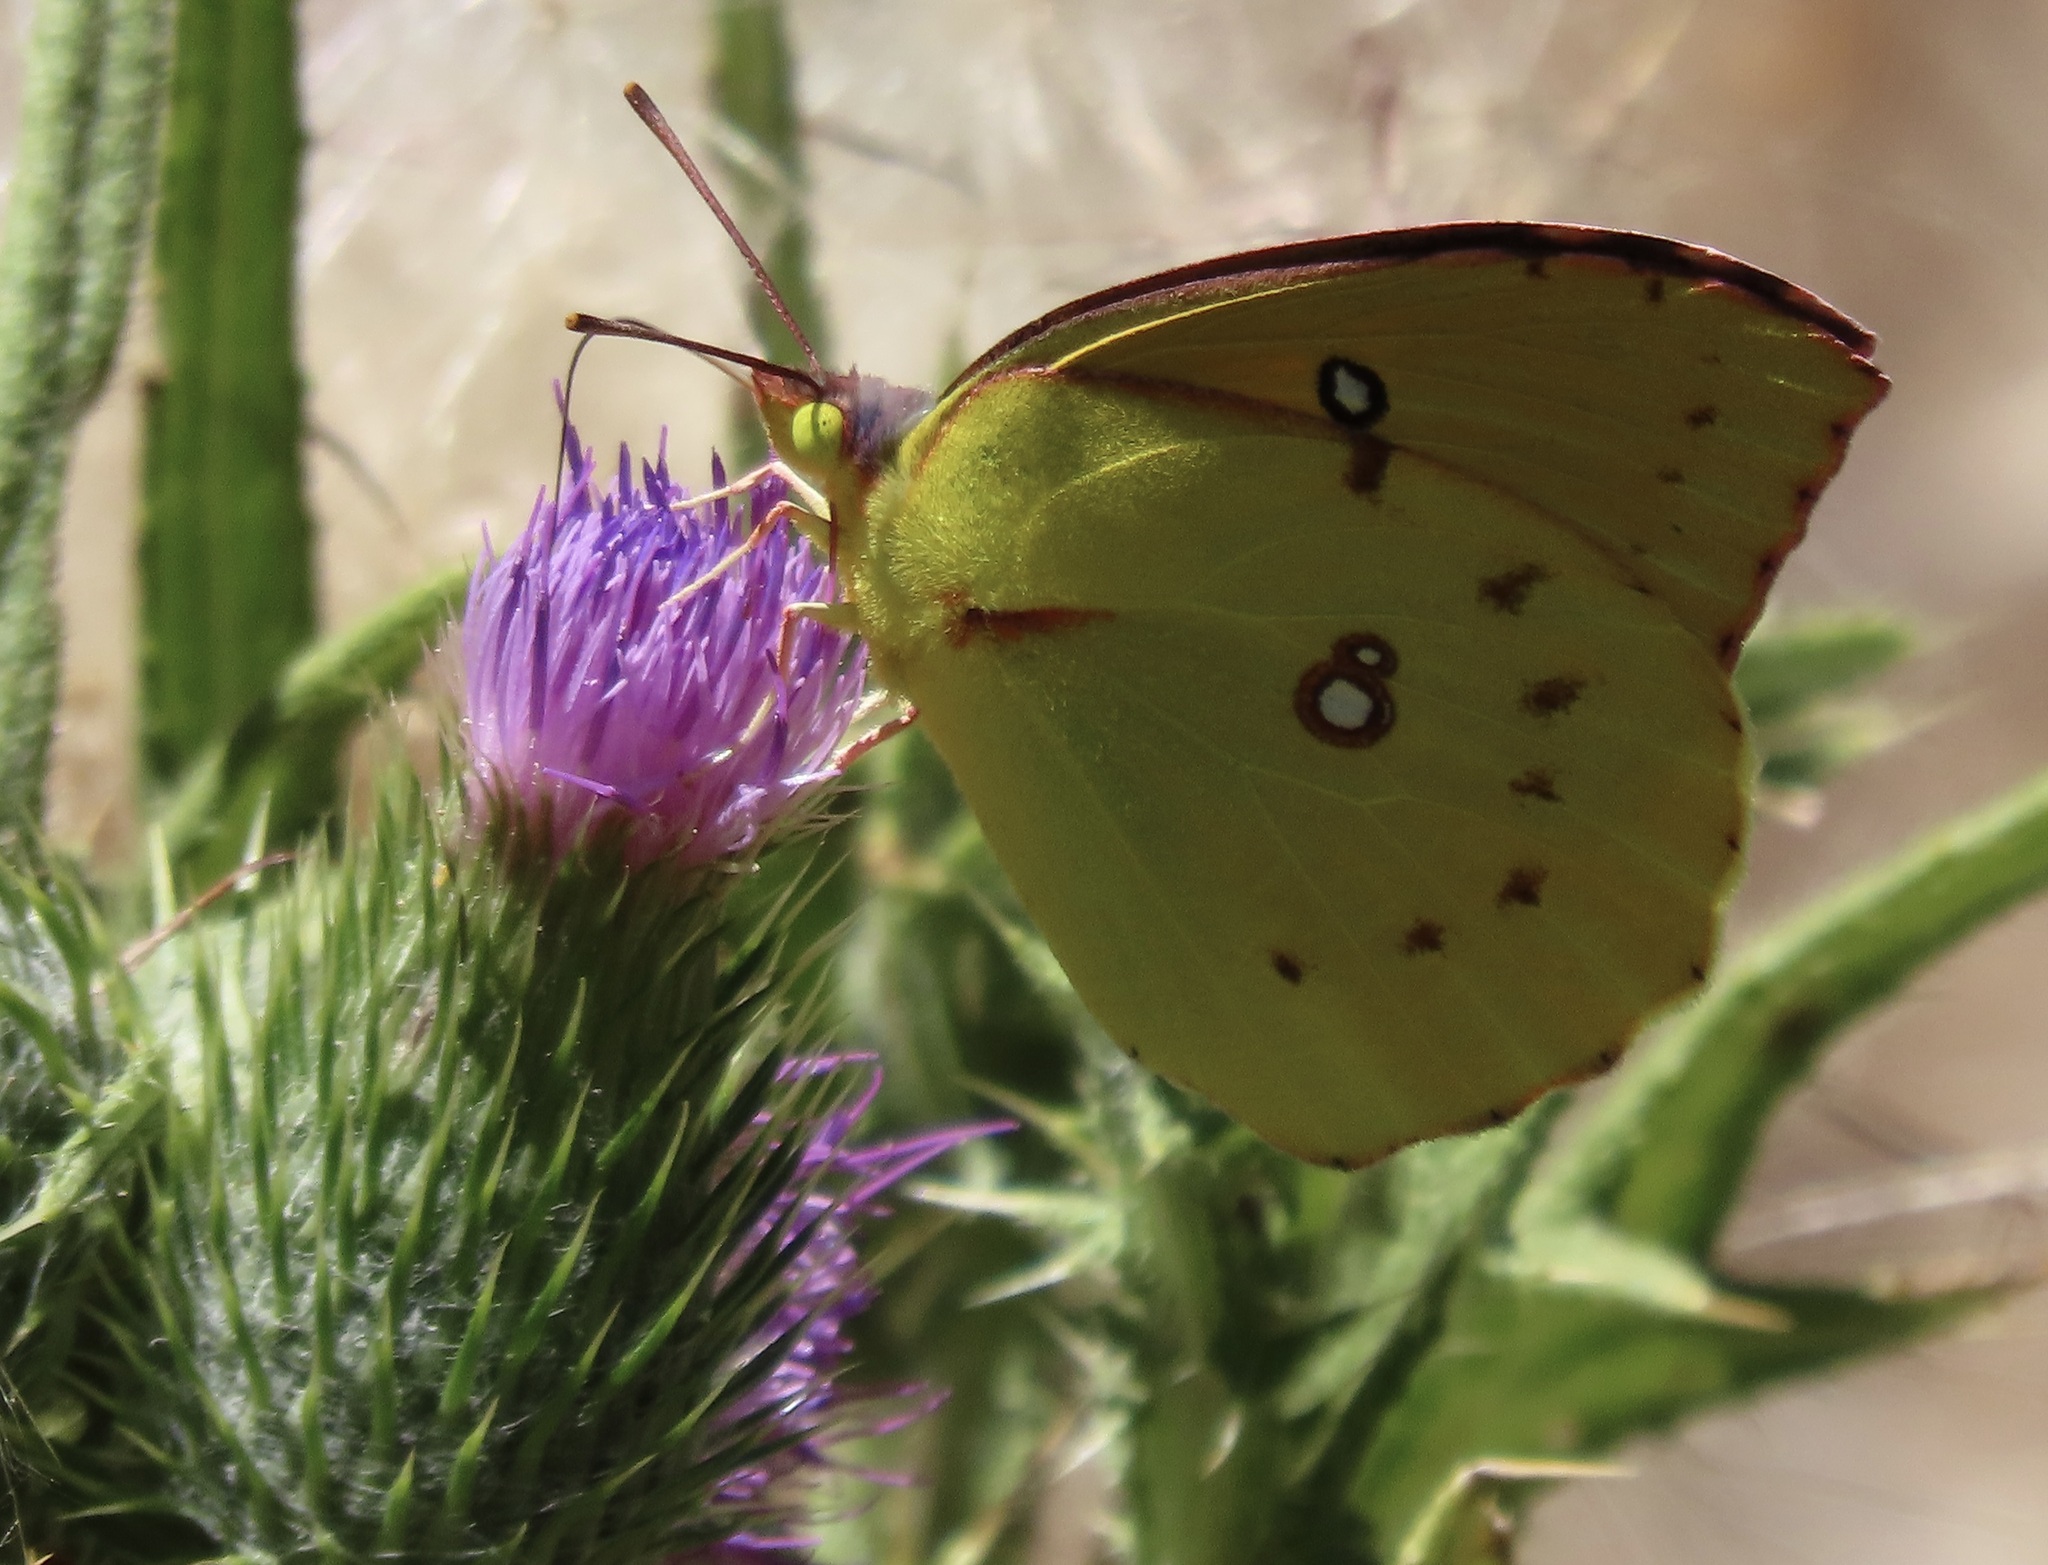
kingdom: Animalia
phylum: Arthropoda
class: Insecta
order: Lepidoptera
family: Pieridae
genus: Zerene
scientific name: Zerene eurydice
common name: California dogface
